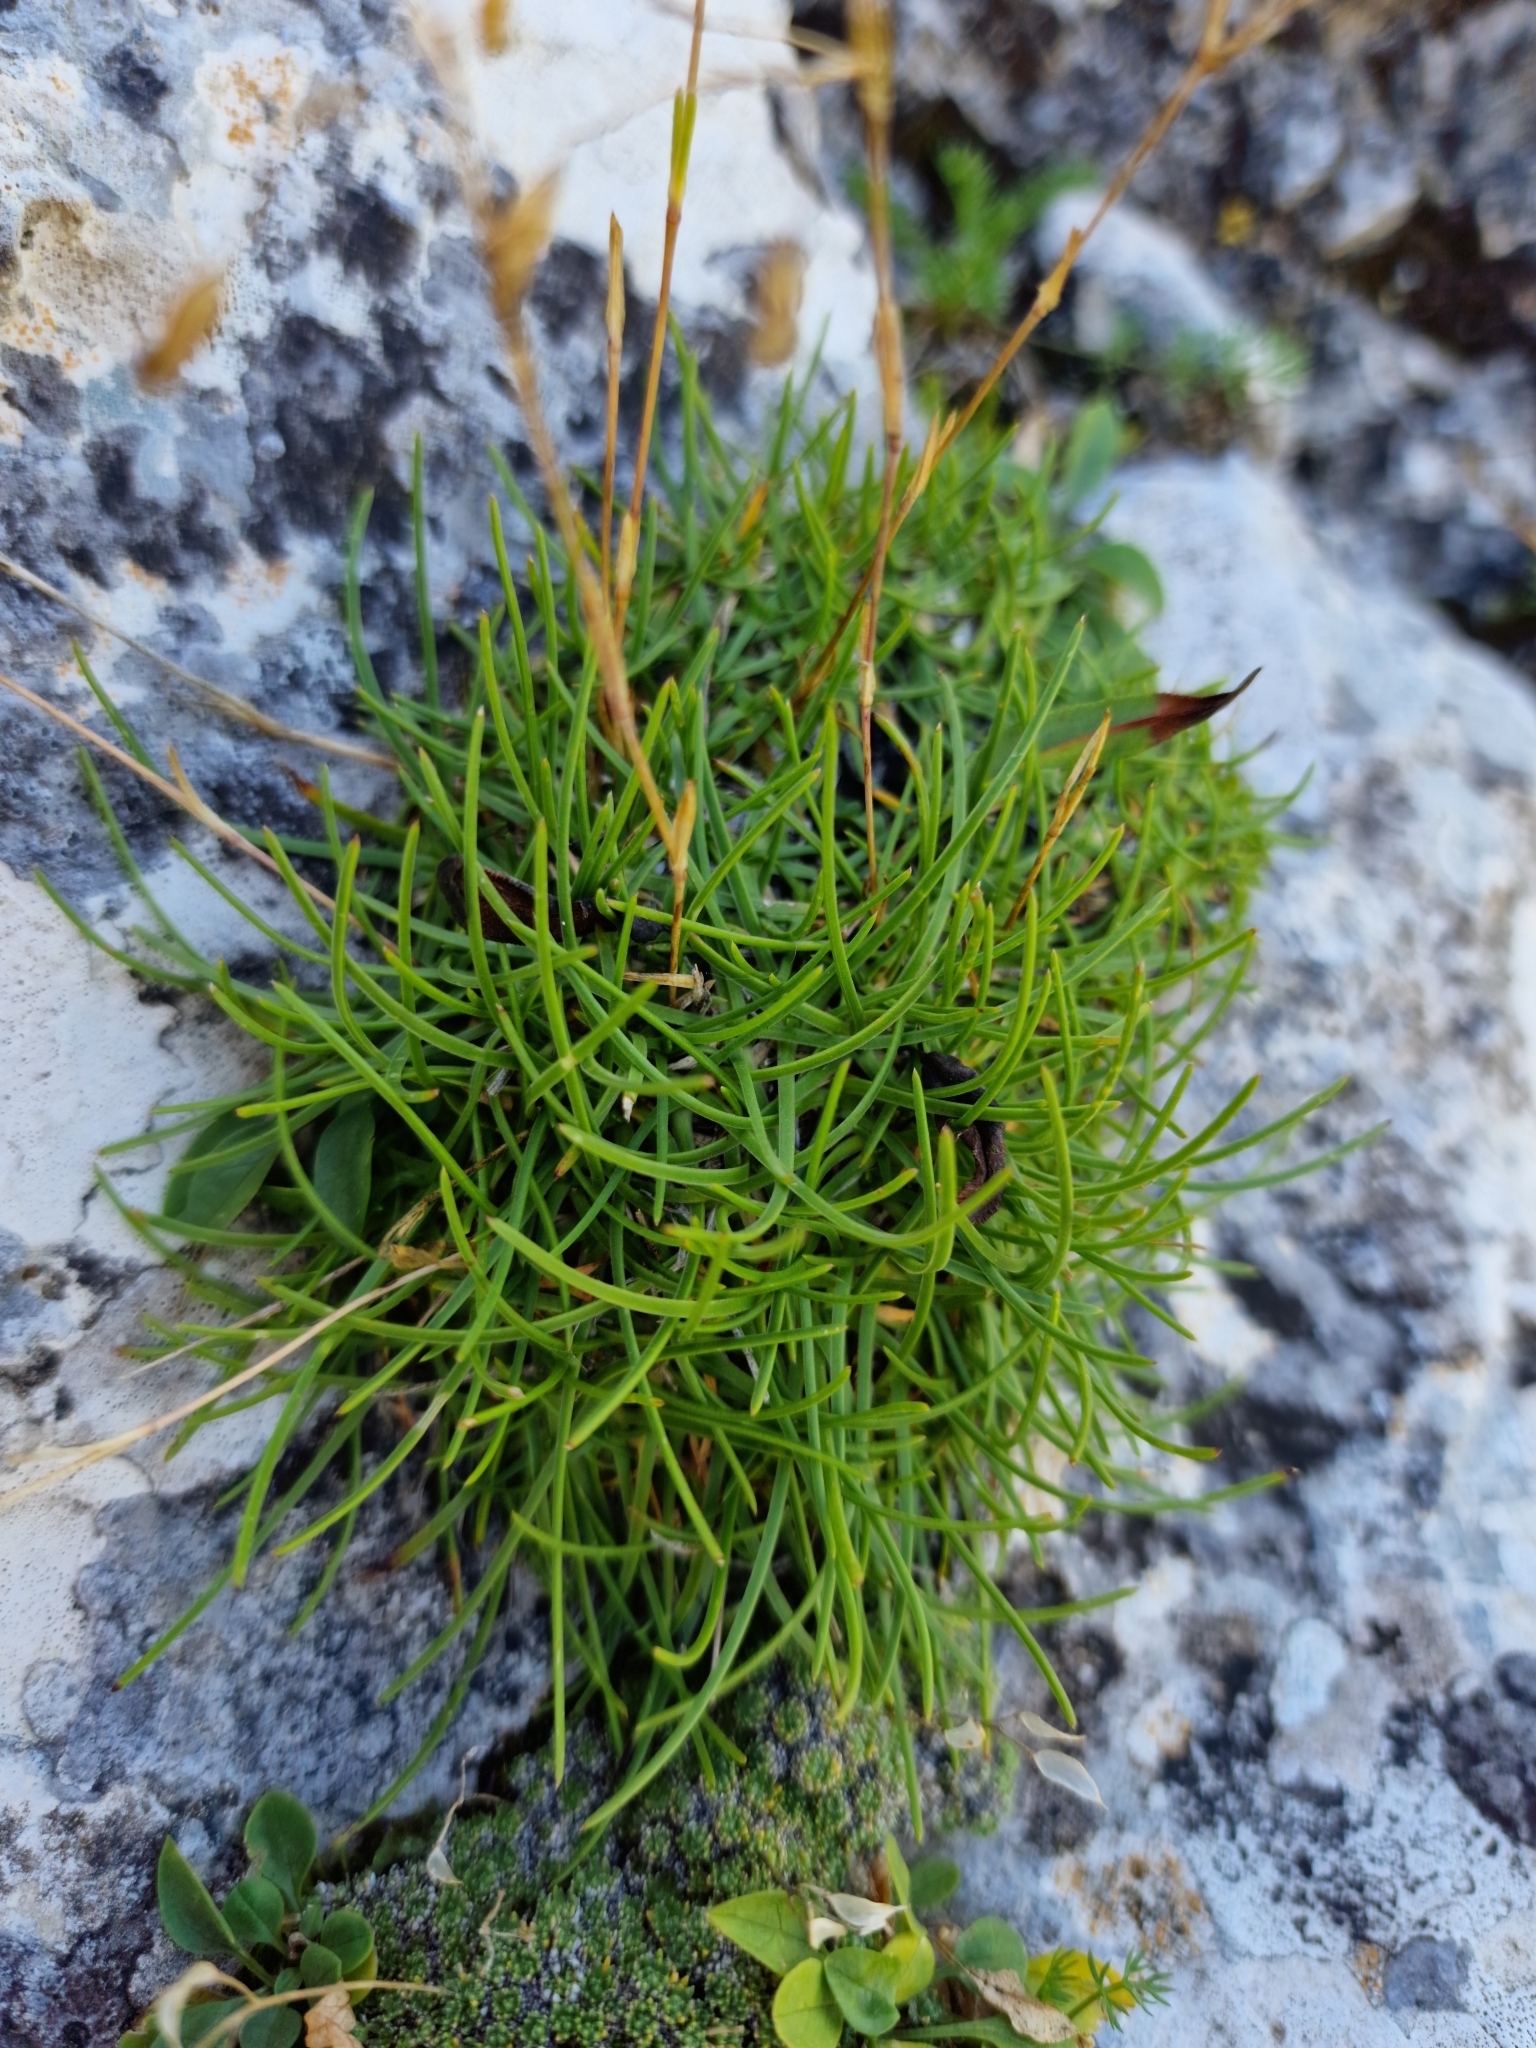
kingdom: Plantae
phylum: Tracheophyta
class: Magnoliopsida
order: Caryophyllales
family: Caryophyllaceae
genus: Gypsophila
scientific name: Gypsophila tenuifolia
